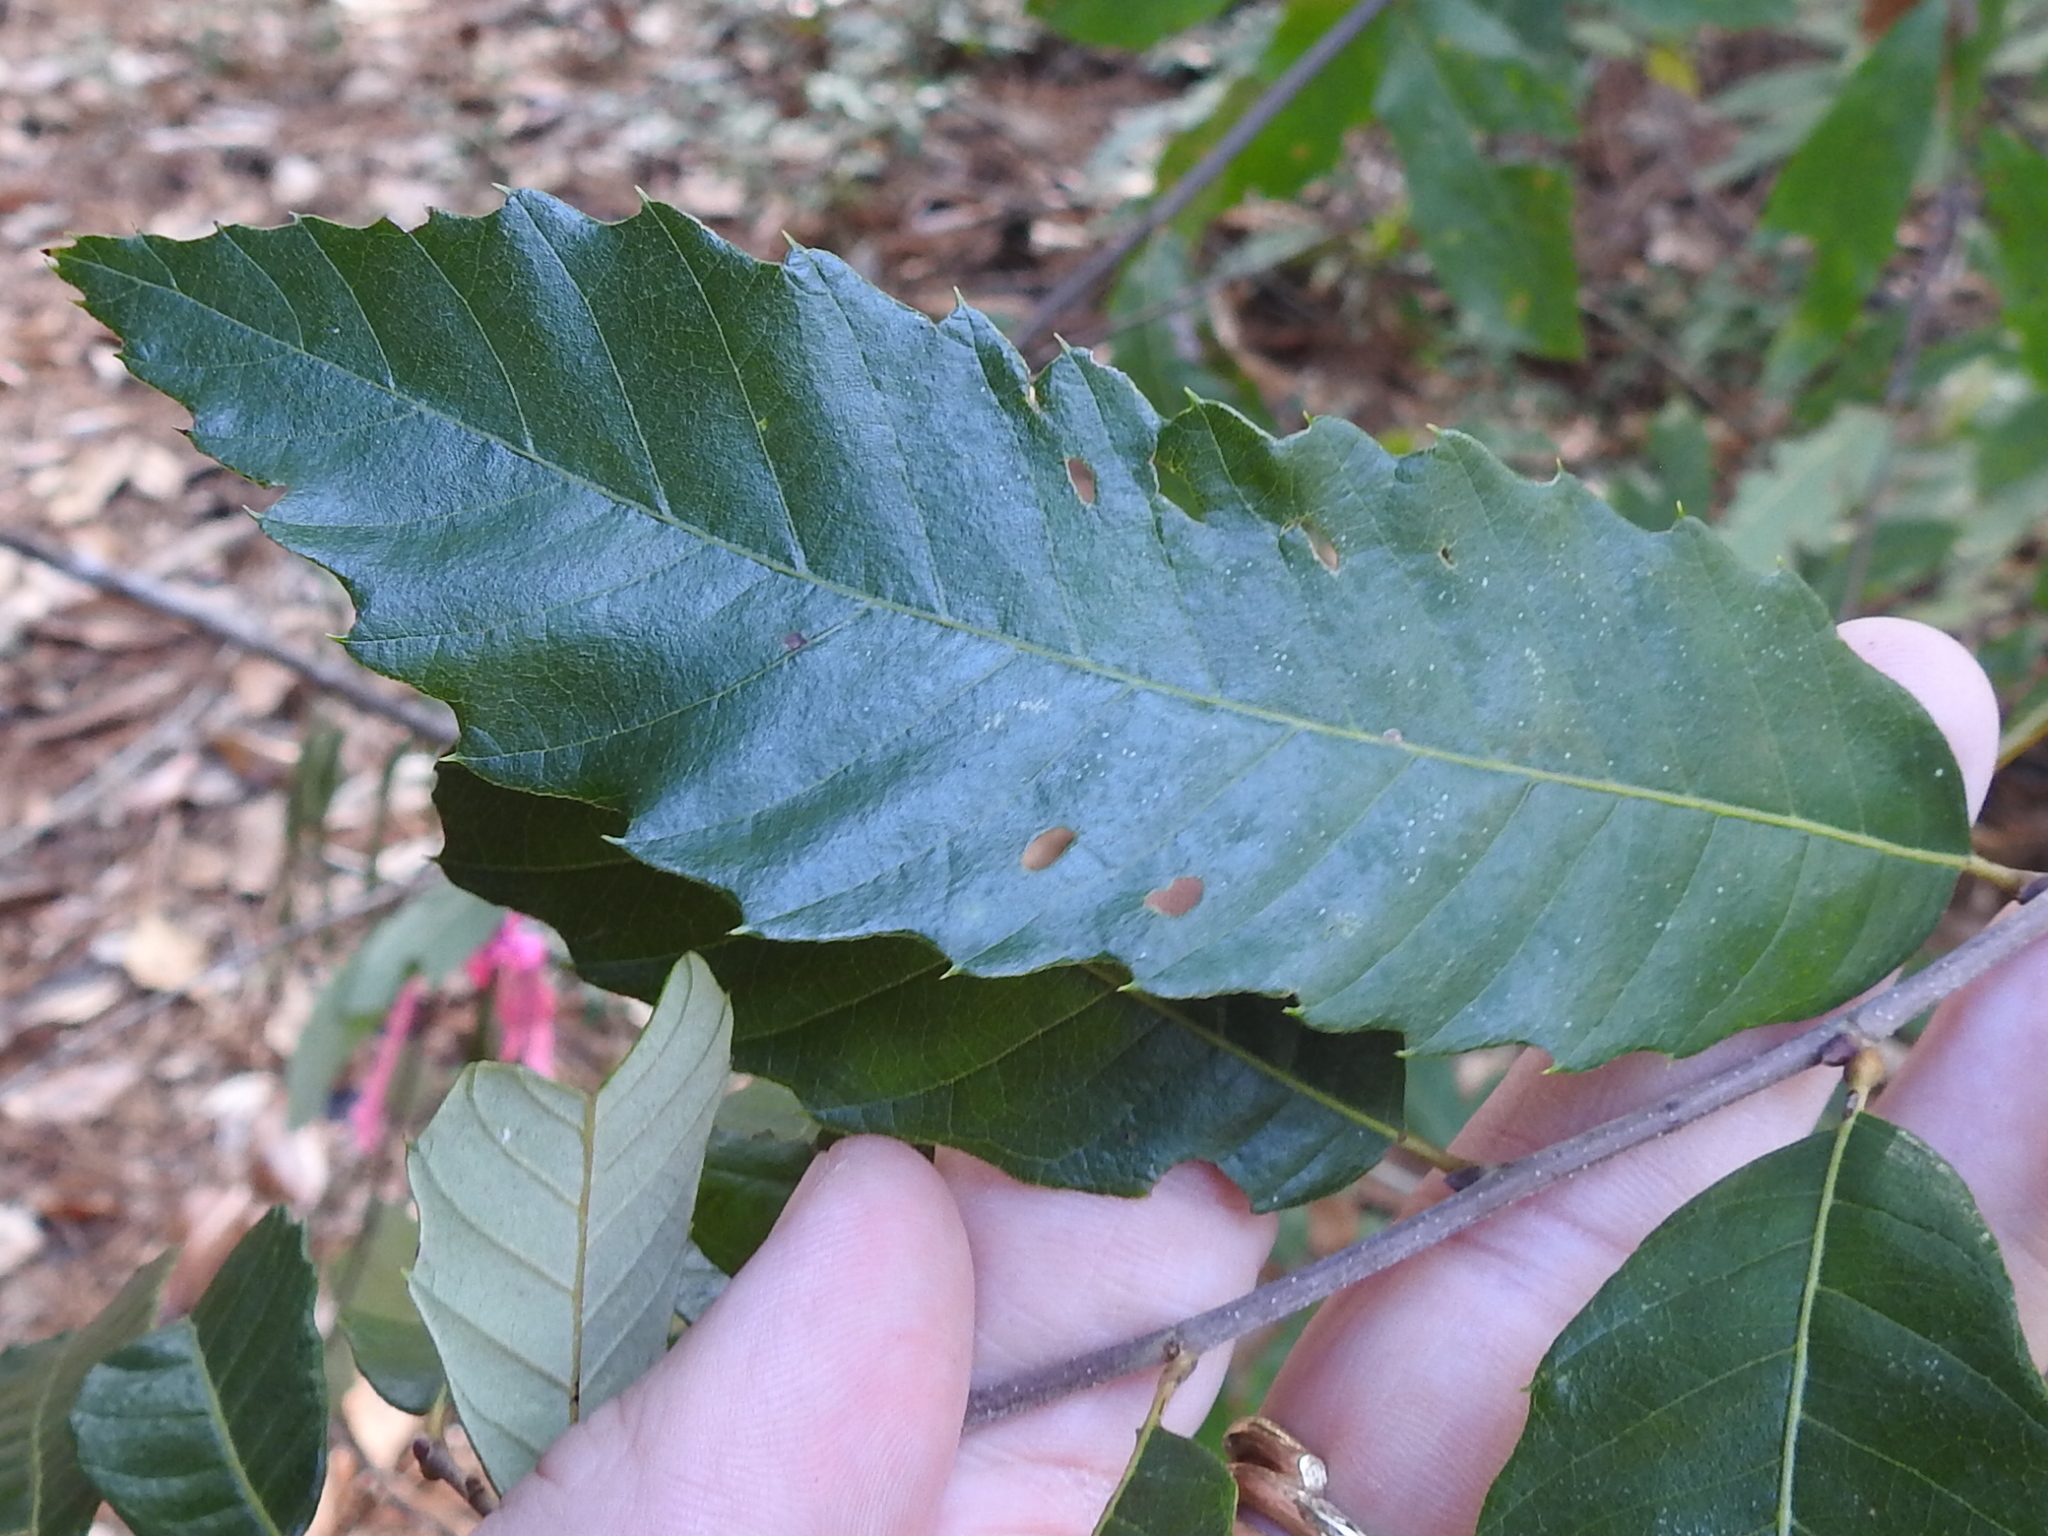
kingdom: Plantae
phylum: Tracheophyta
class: Magnoliopsida
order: Fagales
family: Fagaceae
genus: Castanea
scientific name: Castanea pumila
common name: Chinkapin
